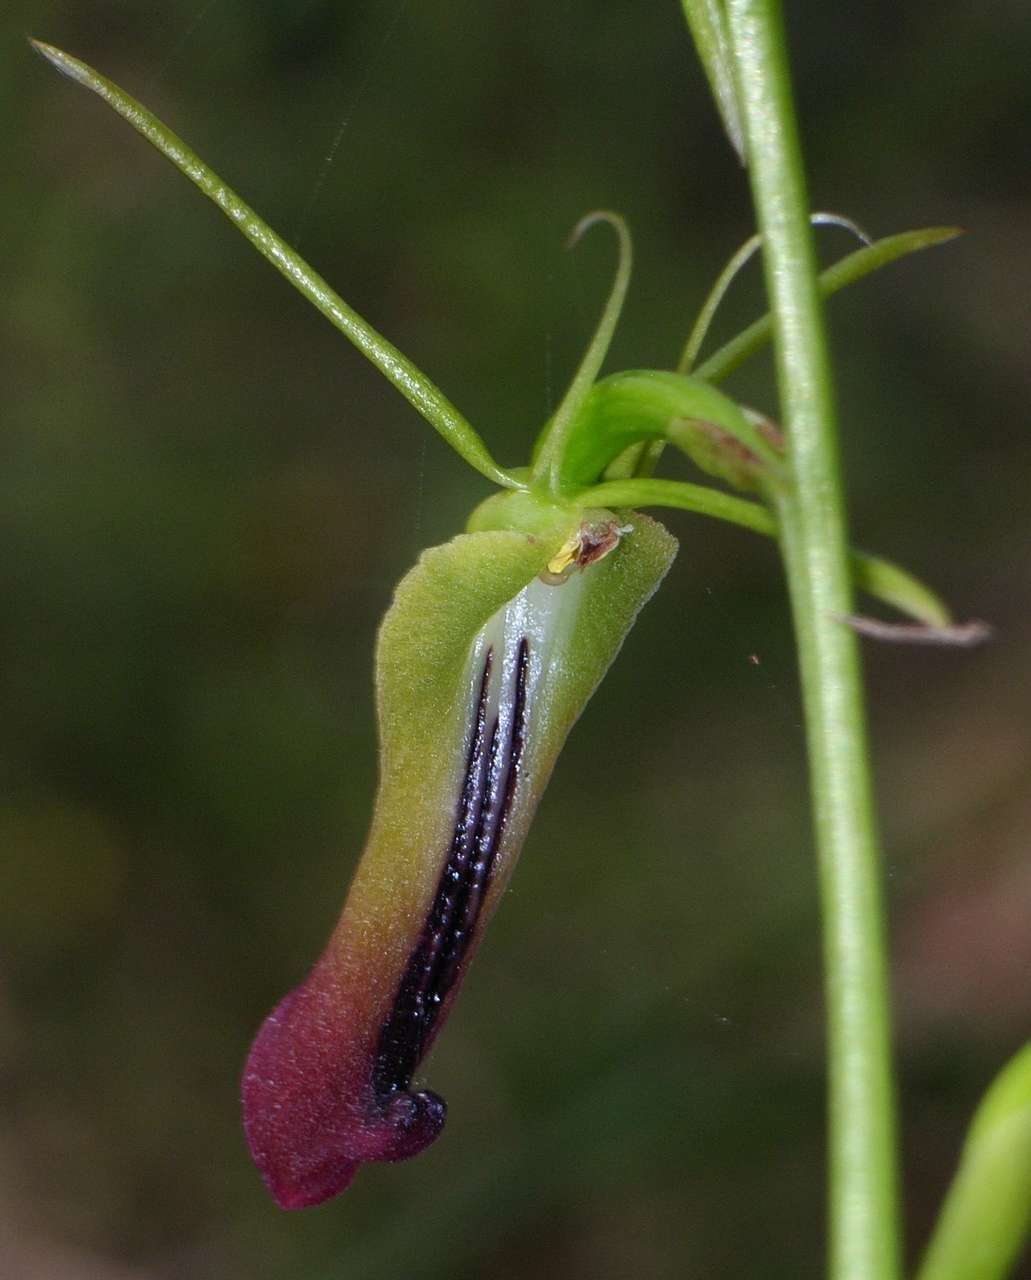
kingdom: Plantae
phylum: Tracheophyta
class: Liliopsida
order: Asparagales
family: Orchidaceae
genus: Cryptostylis
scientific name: Cryptostylis subulata
